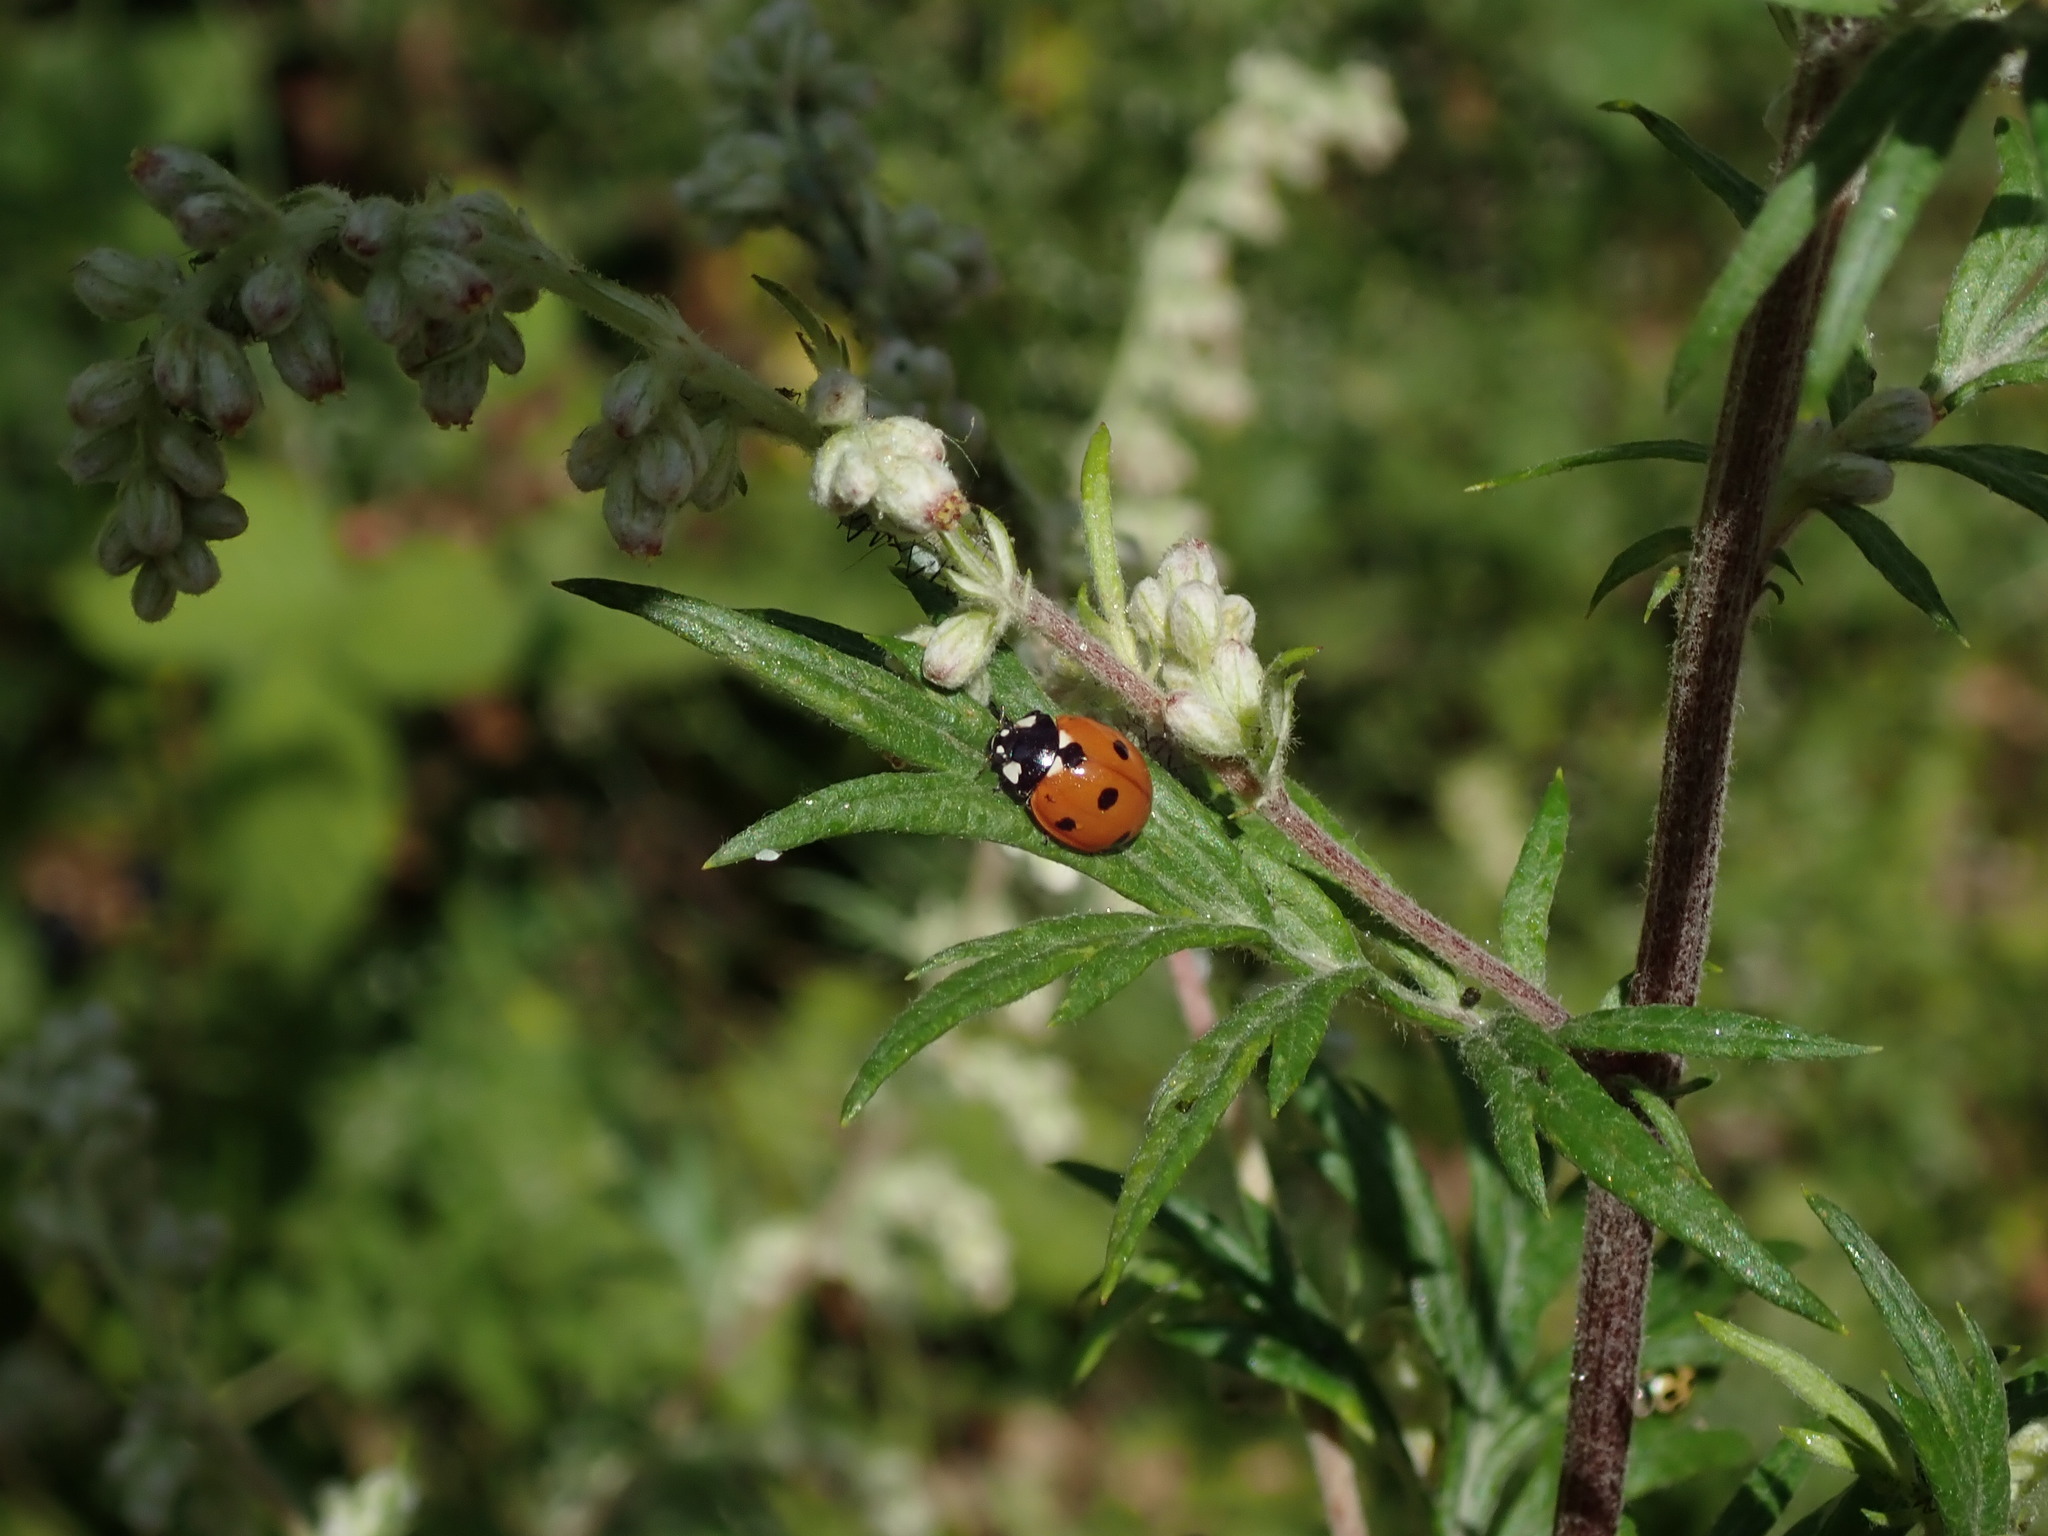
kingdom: Animalia
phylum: Arthropoda
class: Insecta
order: Coleoptera
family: Coccinellidae
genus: Coccinella
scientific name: Coccinella septempunctata
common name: Sevenspotted lady beetle
